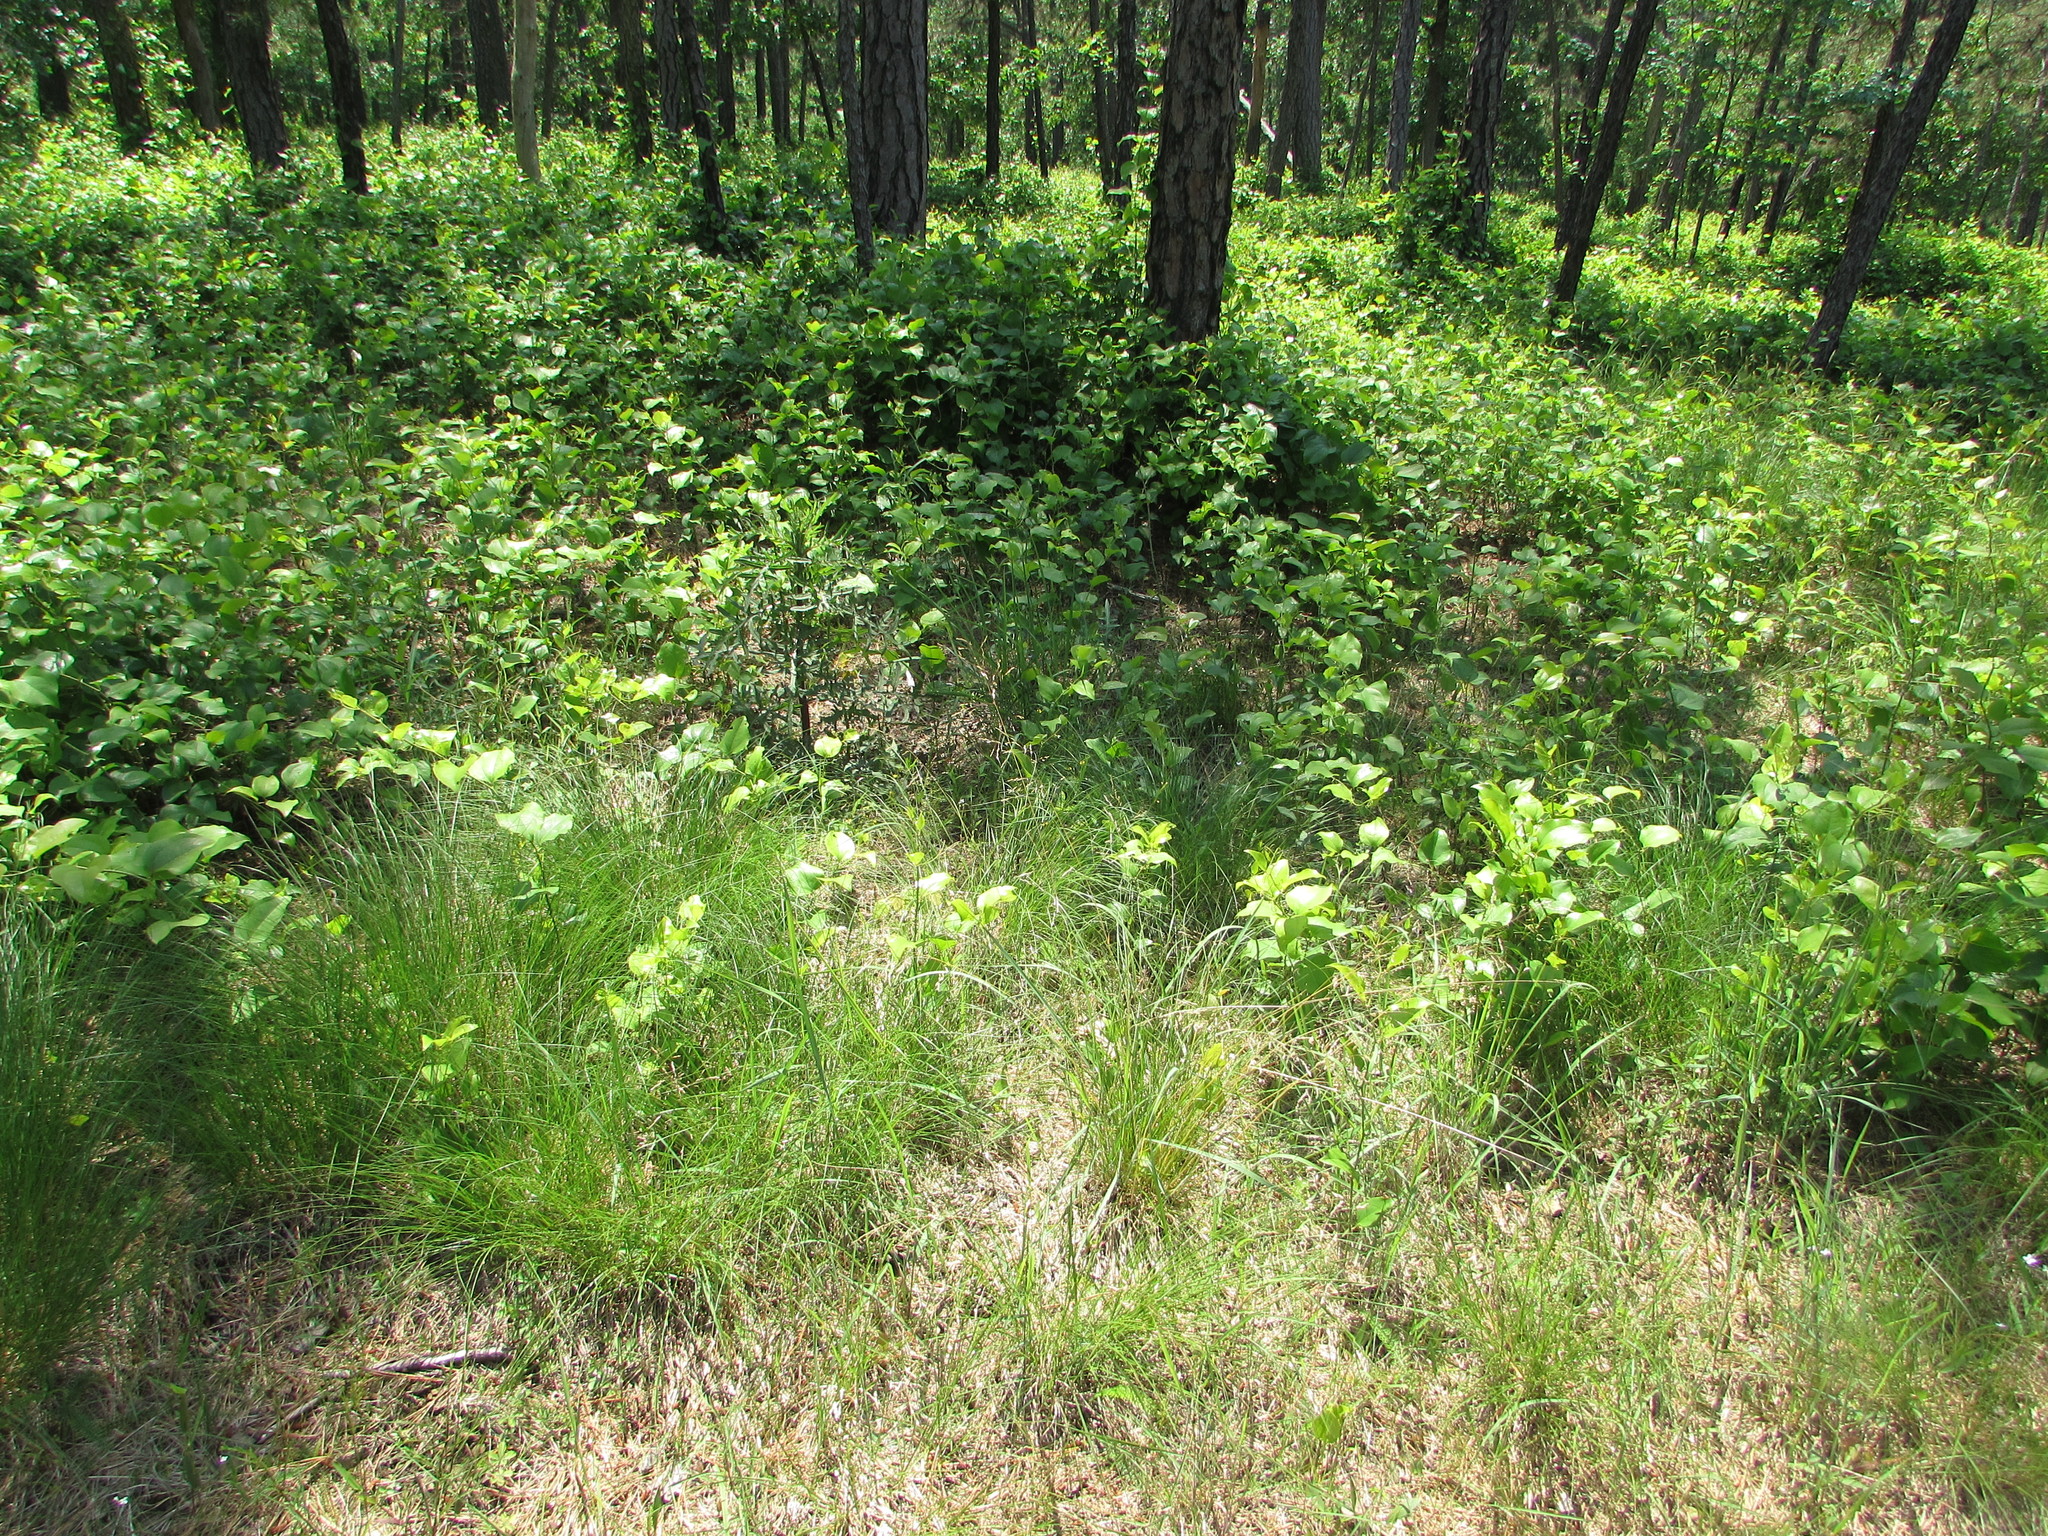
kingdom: Plantae
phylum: Tracheophyta
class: Liliopsida
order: Poales
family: Poaceae
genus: Sporobolus
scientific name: Sporobolus heterolepis
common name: Prairie dropseed
